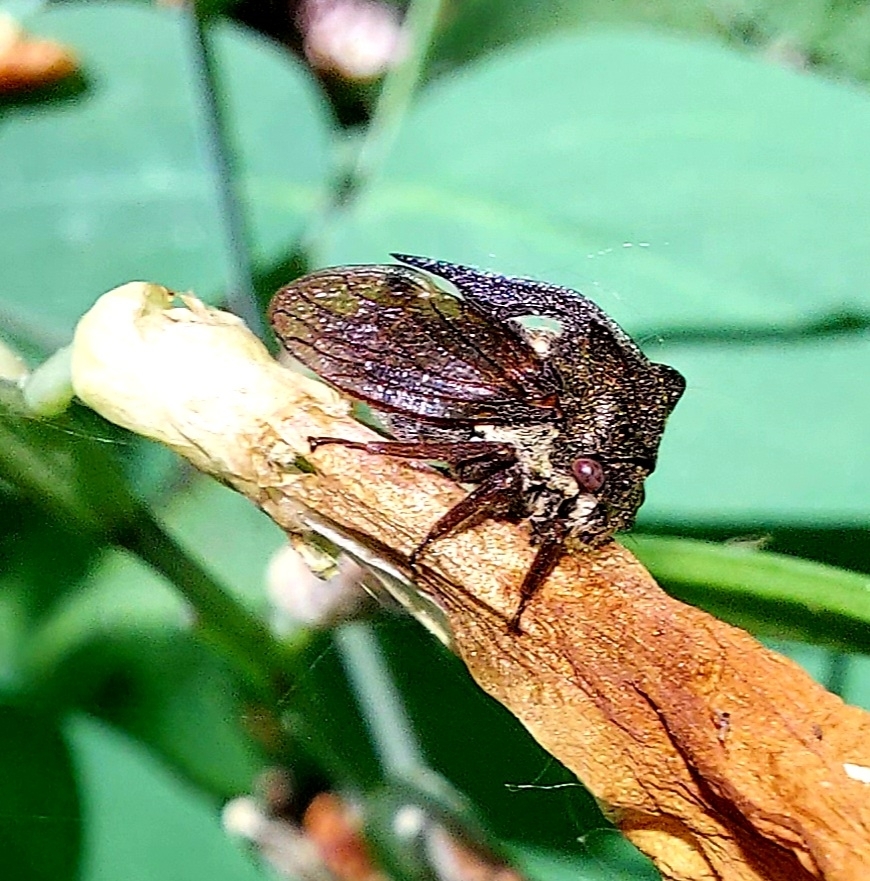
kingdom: Animalia
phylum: Arthropoda
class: Insecta
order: Hemiptera
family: Membracidae
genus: Centrotus
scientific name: Centrotus cornuta
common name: Treehopper
